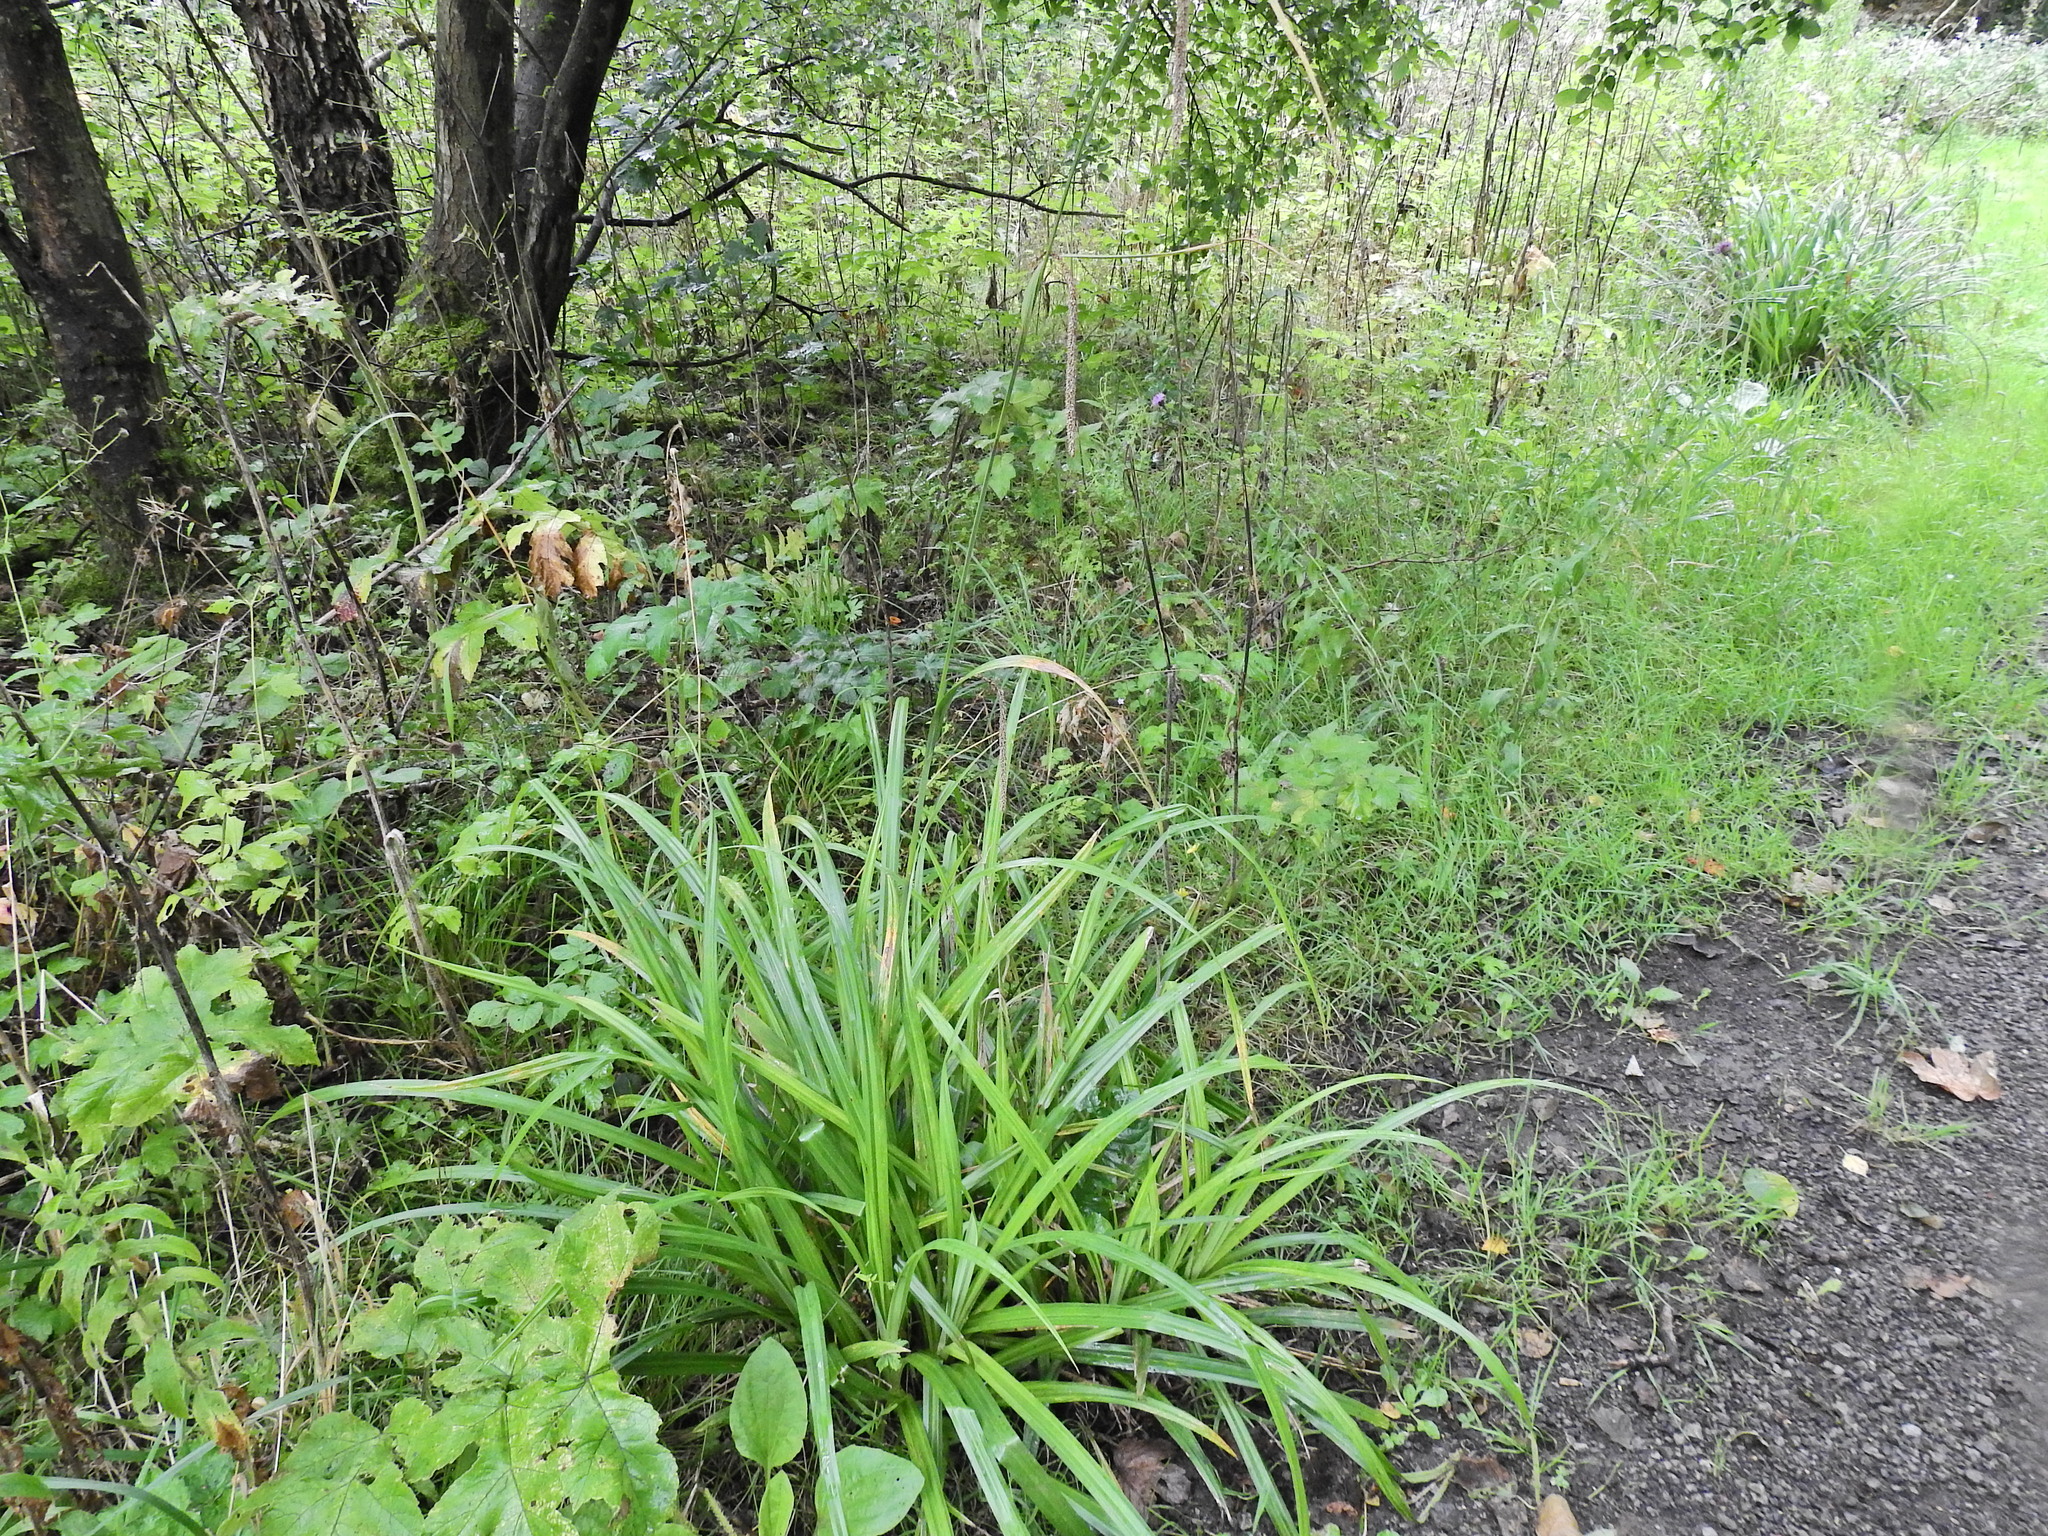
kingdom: Plantae
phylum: Tracheophyta
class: Liliopsida
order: Poales
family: Cyperaceae
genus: Carex
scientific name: Carex pendula
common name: Pendulous sedge
